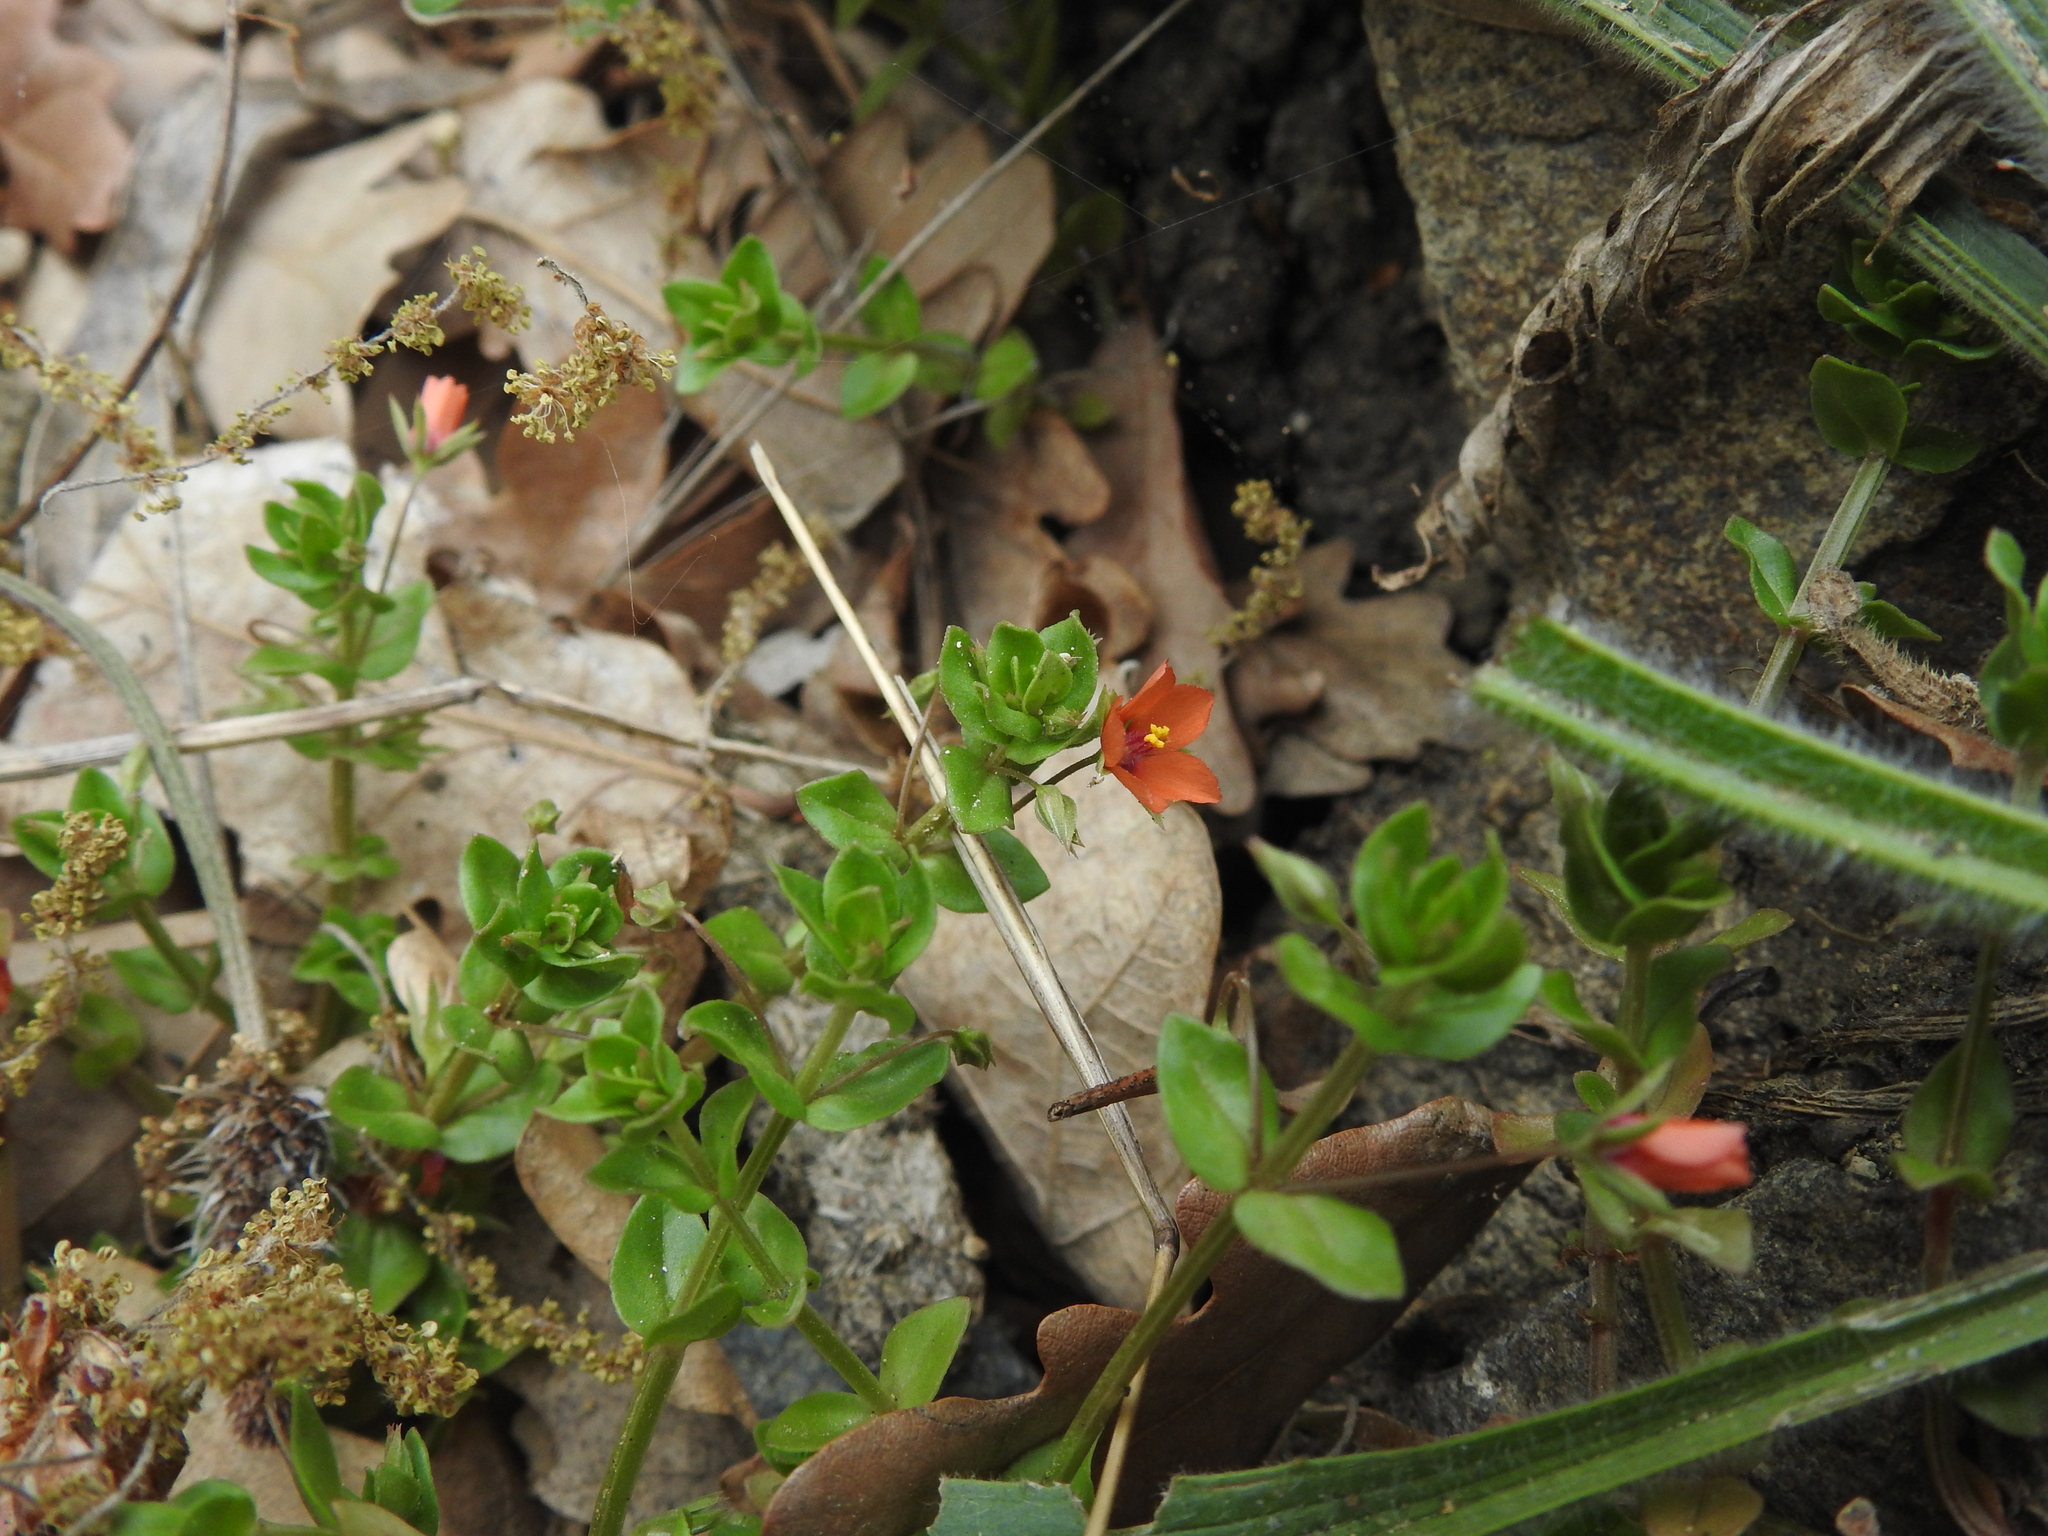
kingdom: Plantae
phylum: Tracheophyta
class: Magnoliopsida
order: Ericales
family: Primulaceae
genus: Lysimachia
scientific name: Lysimachia arvensis
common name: Scarlet pimpernel
